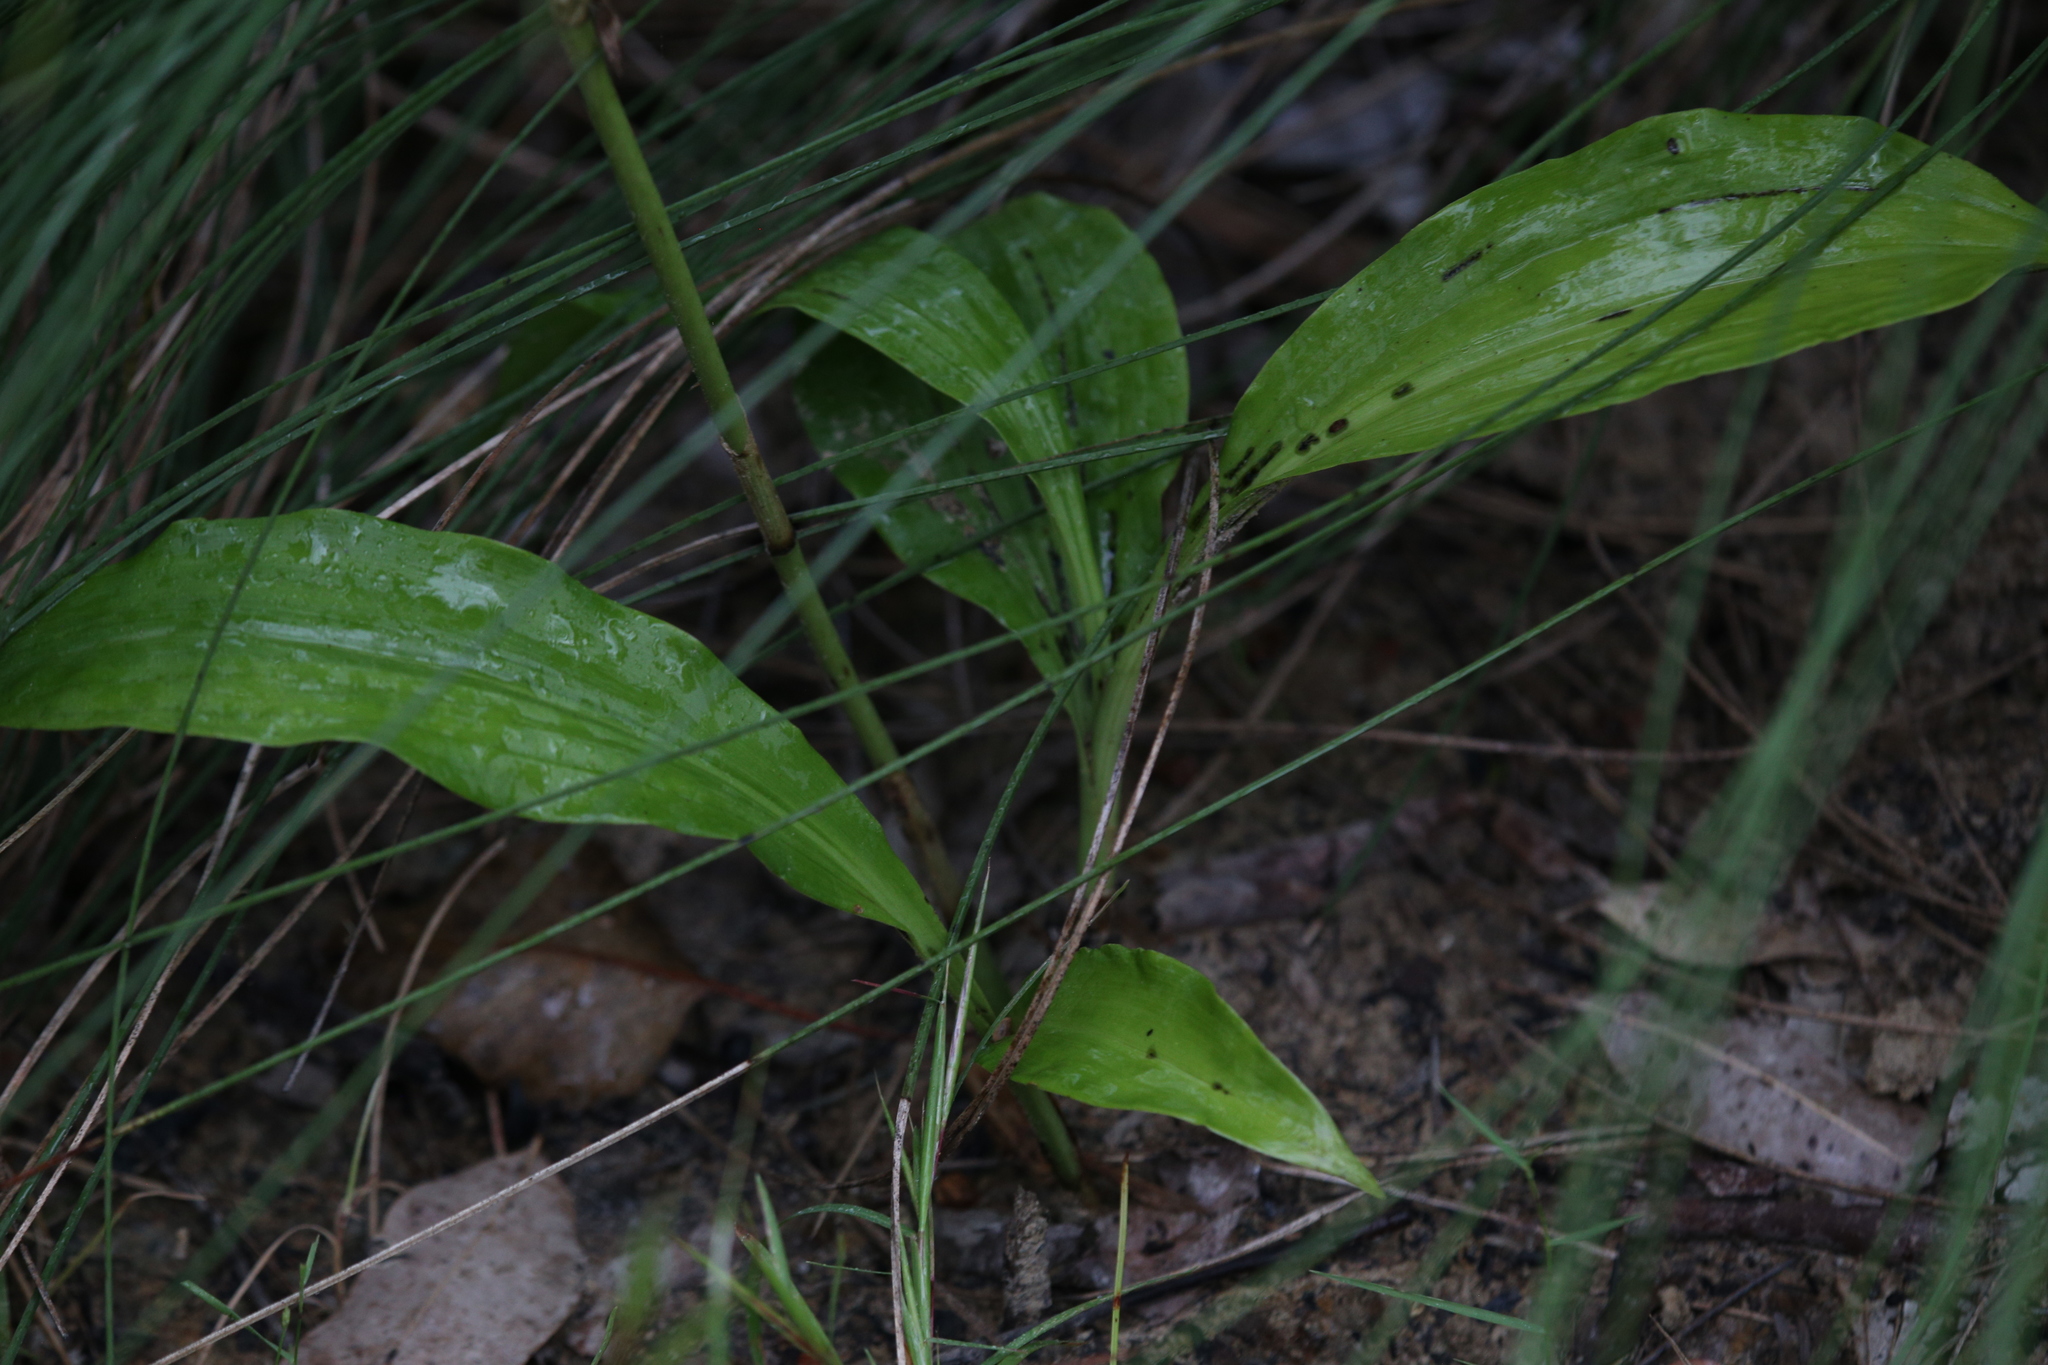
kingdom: Plantae
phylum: Tracheophyta
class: Liliopsida
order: Asparagales
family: Orchidaceae
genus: Eulophia
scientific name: Eulophia cernua
